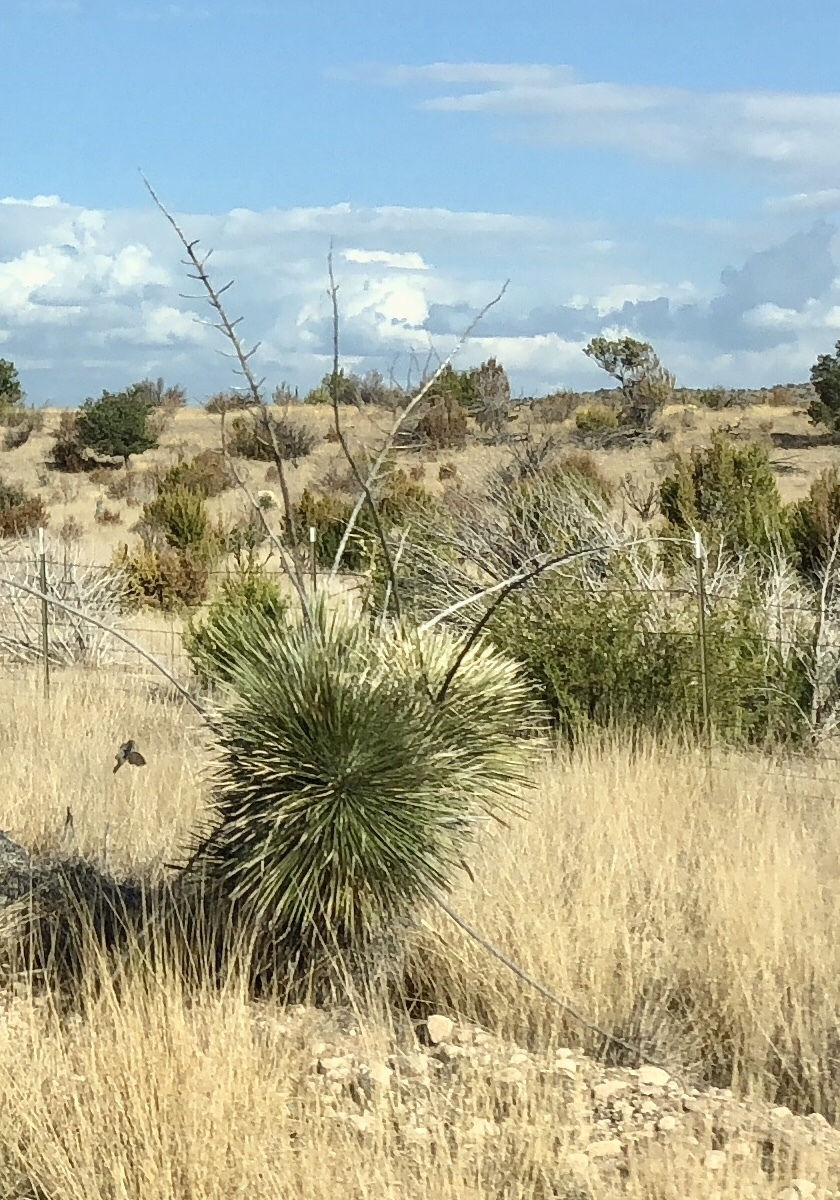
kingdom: Plantae
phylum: Tracheophyta
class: Liliopsida
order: Asparagales
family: Asparagaceae
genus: Yucca
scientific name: Yucca elata
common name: Palmella
